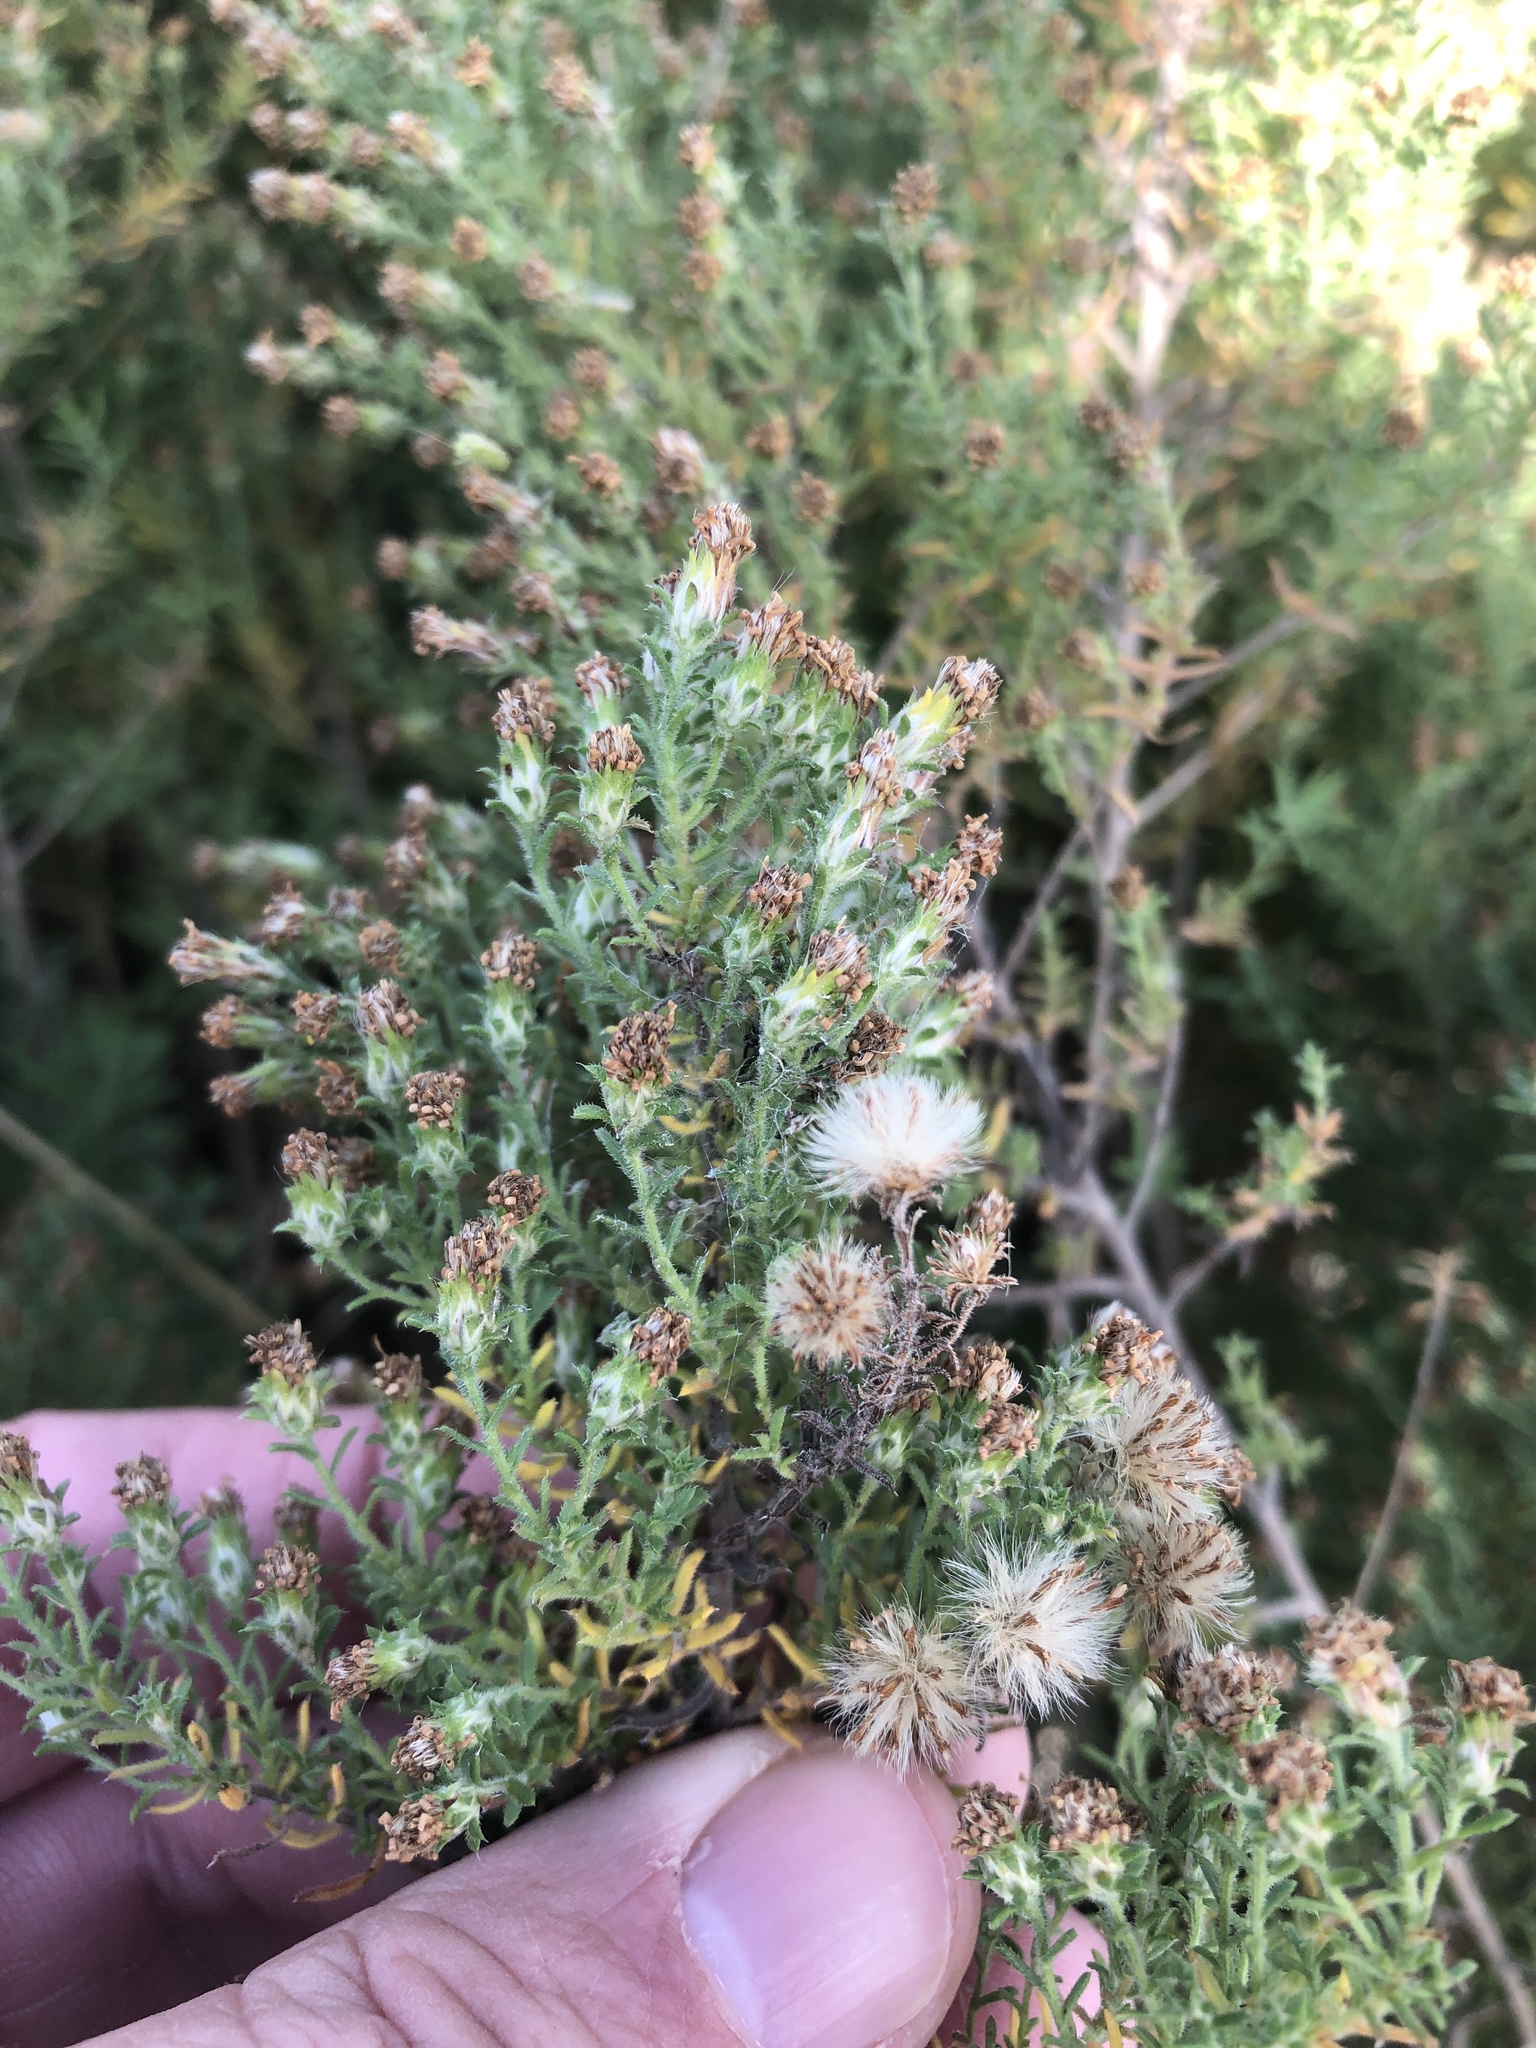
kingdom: Plantae
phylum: Tracheophyta
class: Magnoliopsida
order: Asterales
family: Asteraceae
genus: Symphyotrichum
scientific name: Symphyotrichum ericoides
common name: Heath aster
